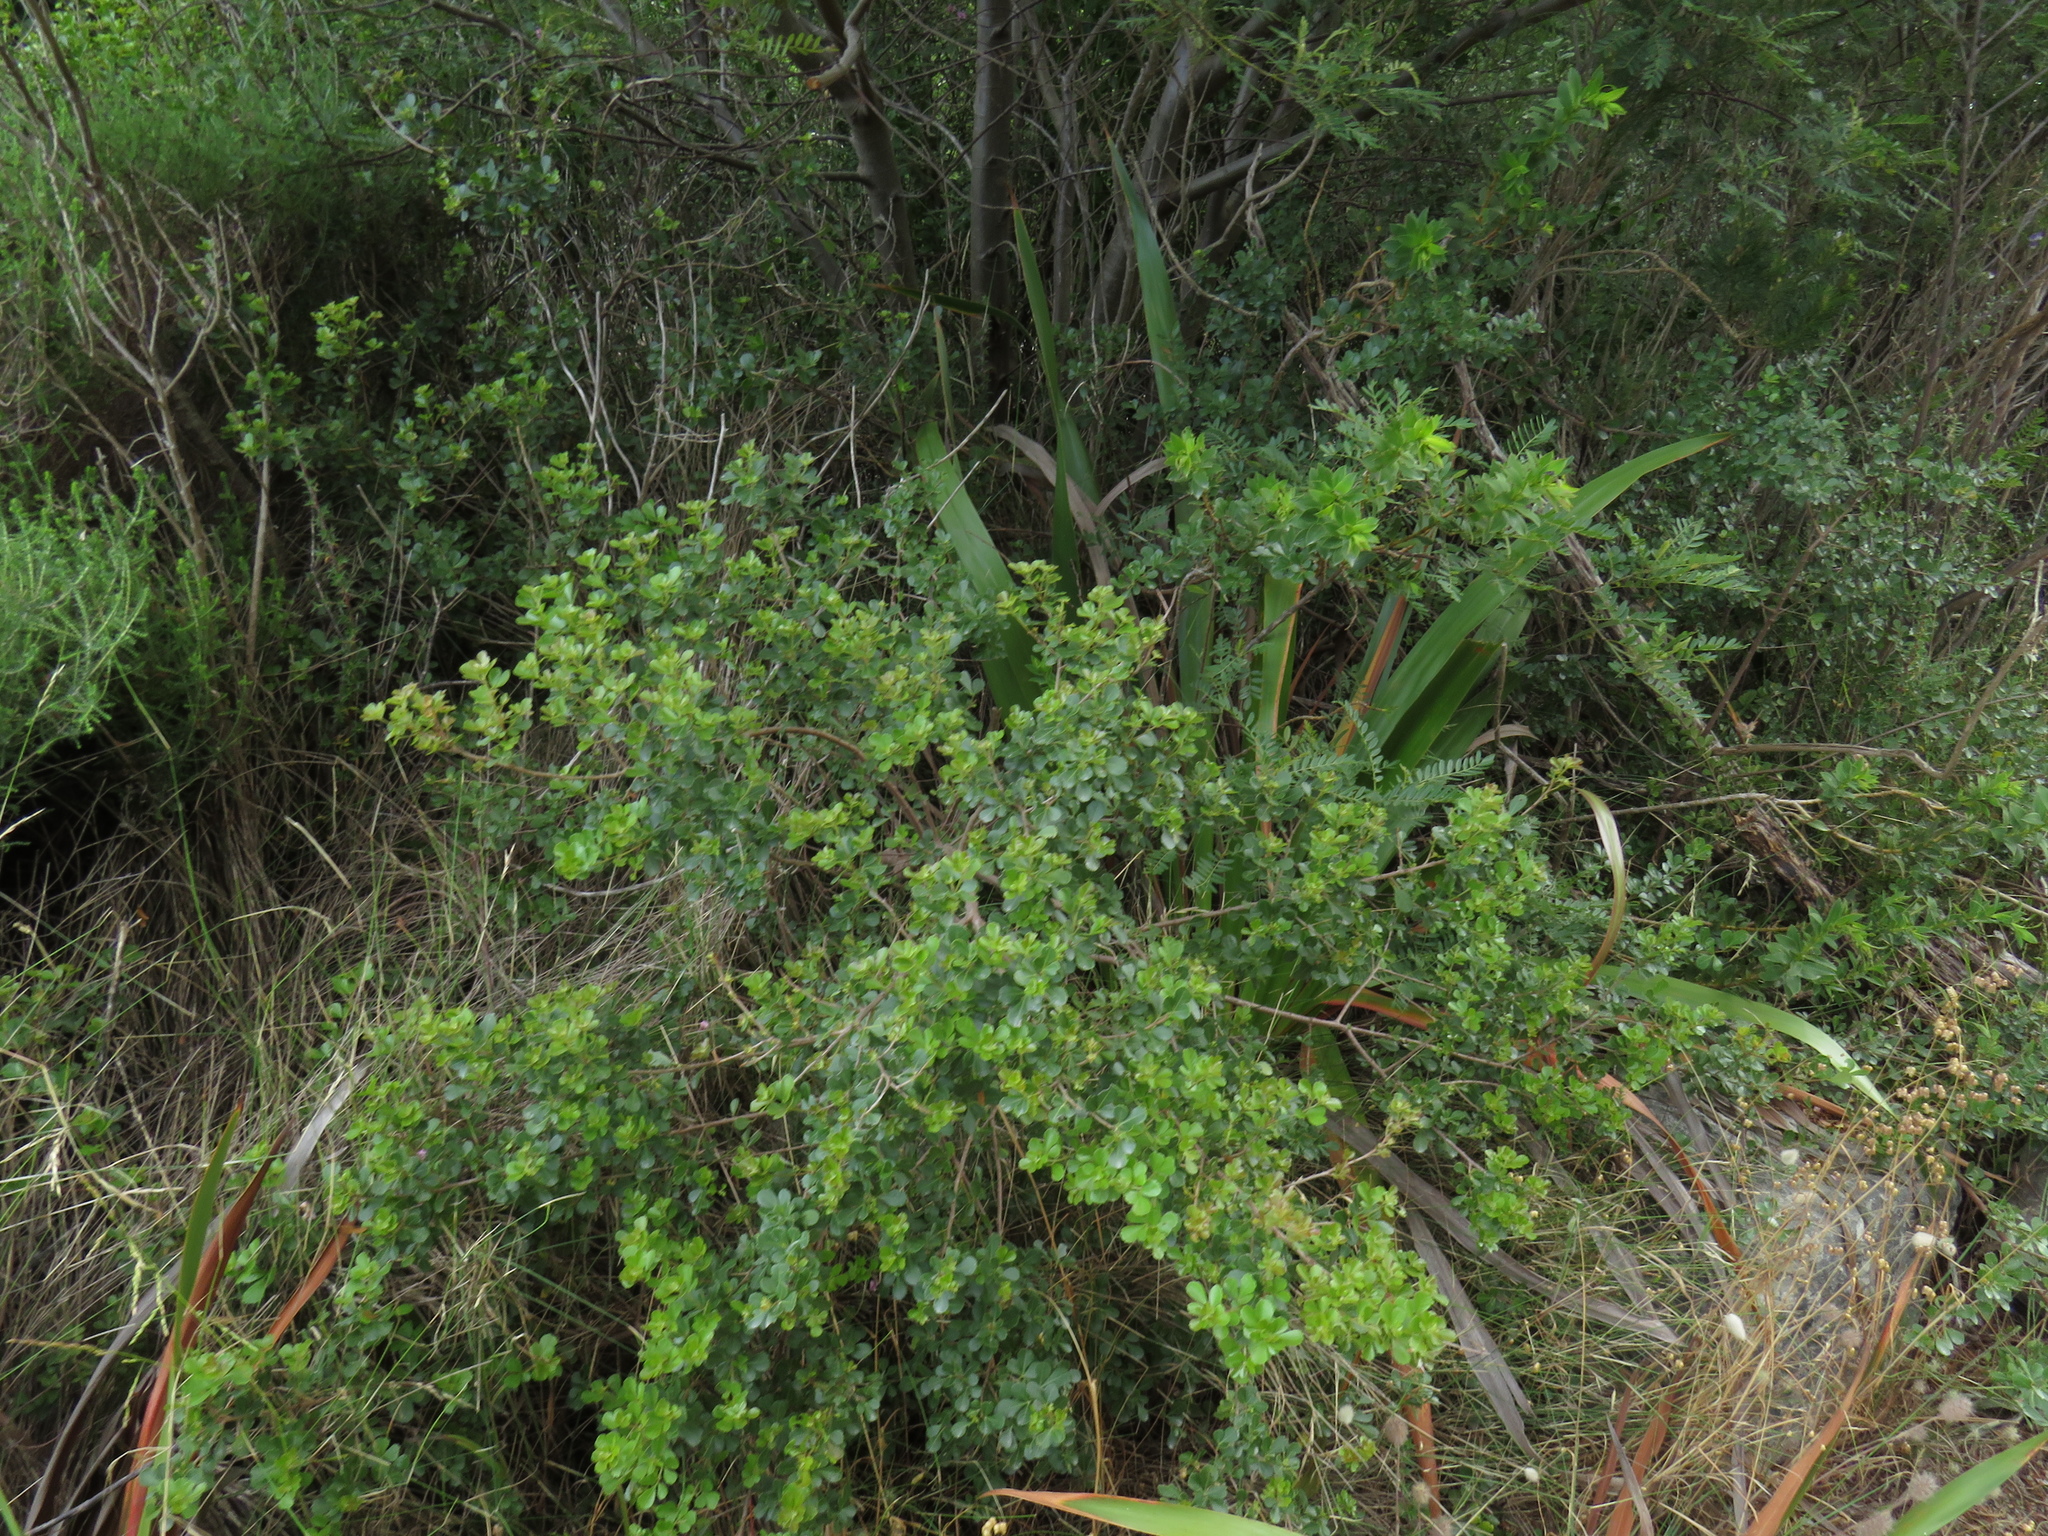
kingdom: Plantae
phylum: Tracheophyta
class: Magnoliopsida
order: Sapindales
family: Anacardiaceae
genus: Searsia
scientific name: Searsia crenata
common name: Crowberry
